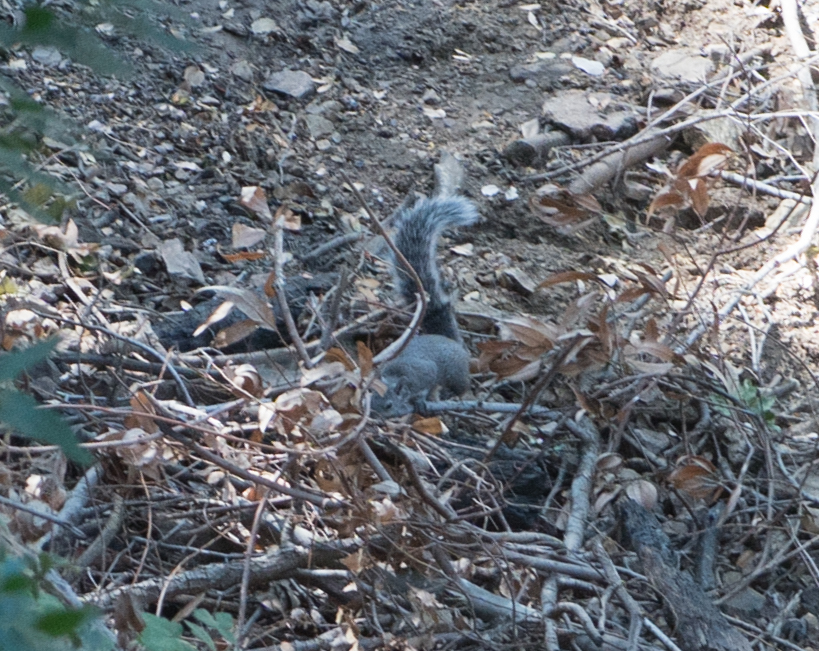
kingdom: Animalia
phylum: Chordata
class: Mammalia
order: Rodentia
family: Sciuridae
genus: Sciurus
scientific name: Sciurus griseus
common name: Western gray squirrel
